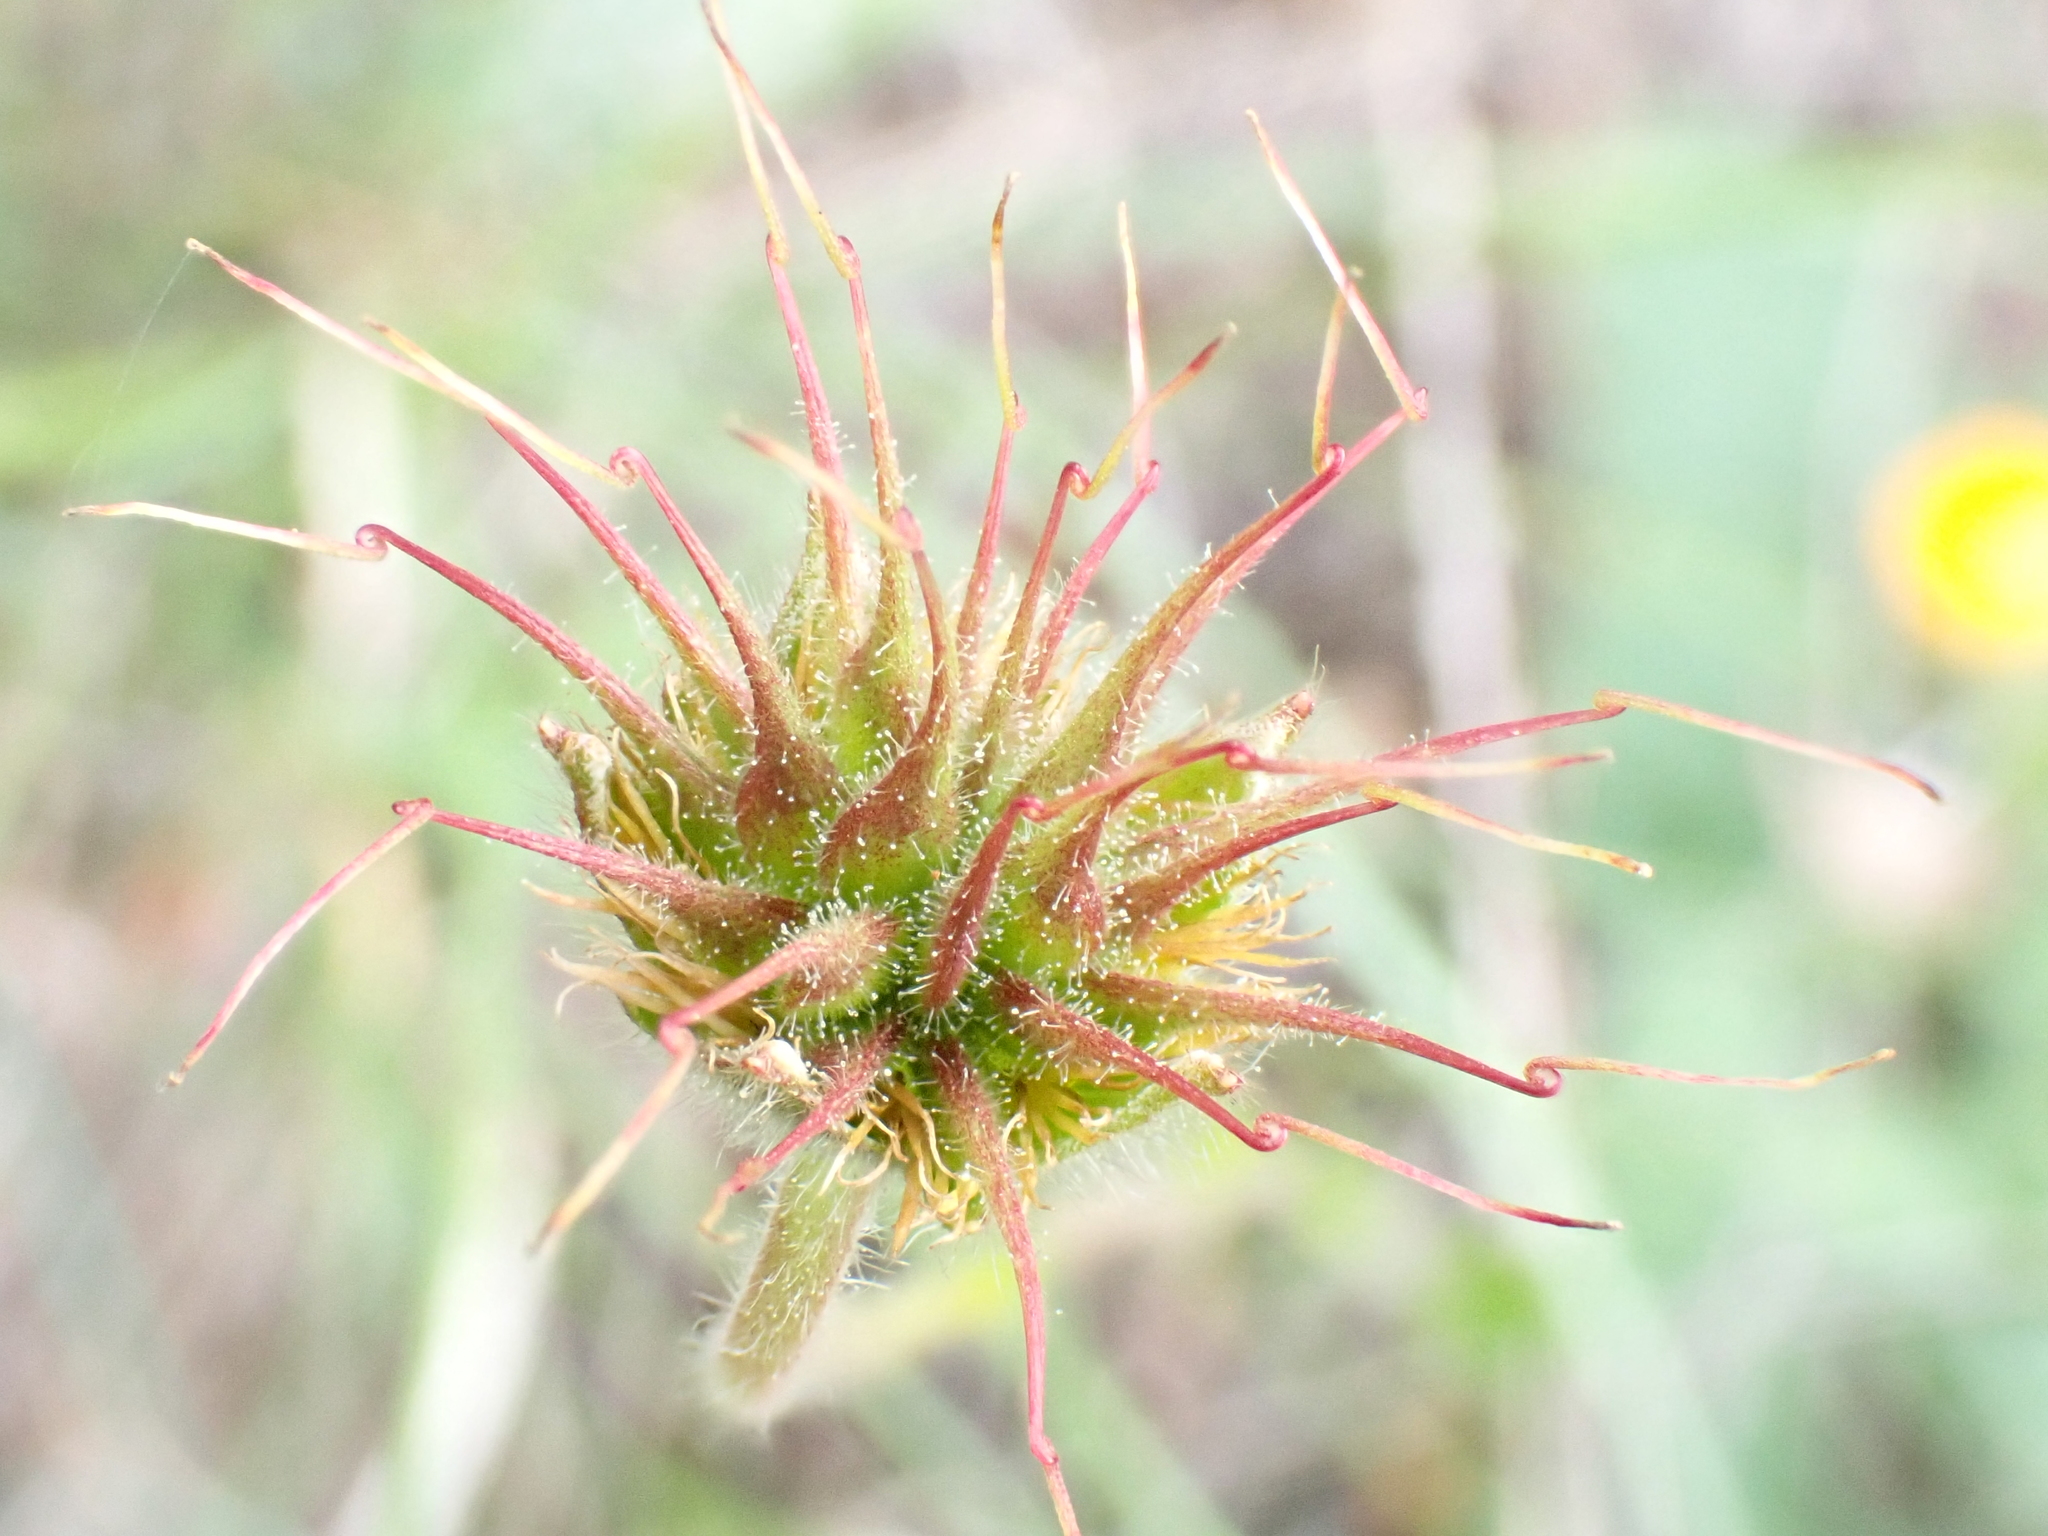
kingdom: Plantae
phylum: Tracheophyta
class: Magnoliopsida
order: Rosales
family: Rosaceae
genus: Geum
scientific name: Geum sylvaticum
